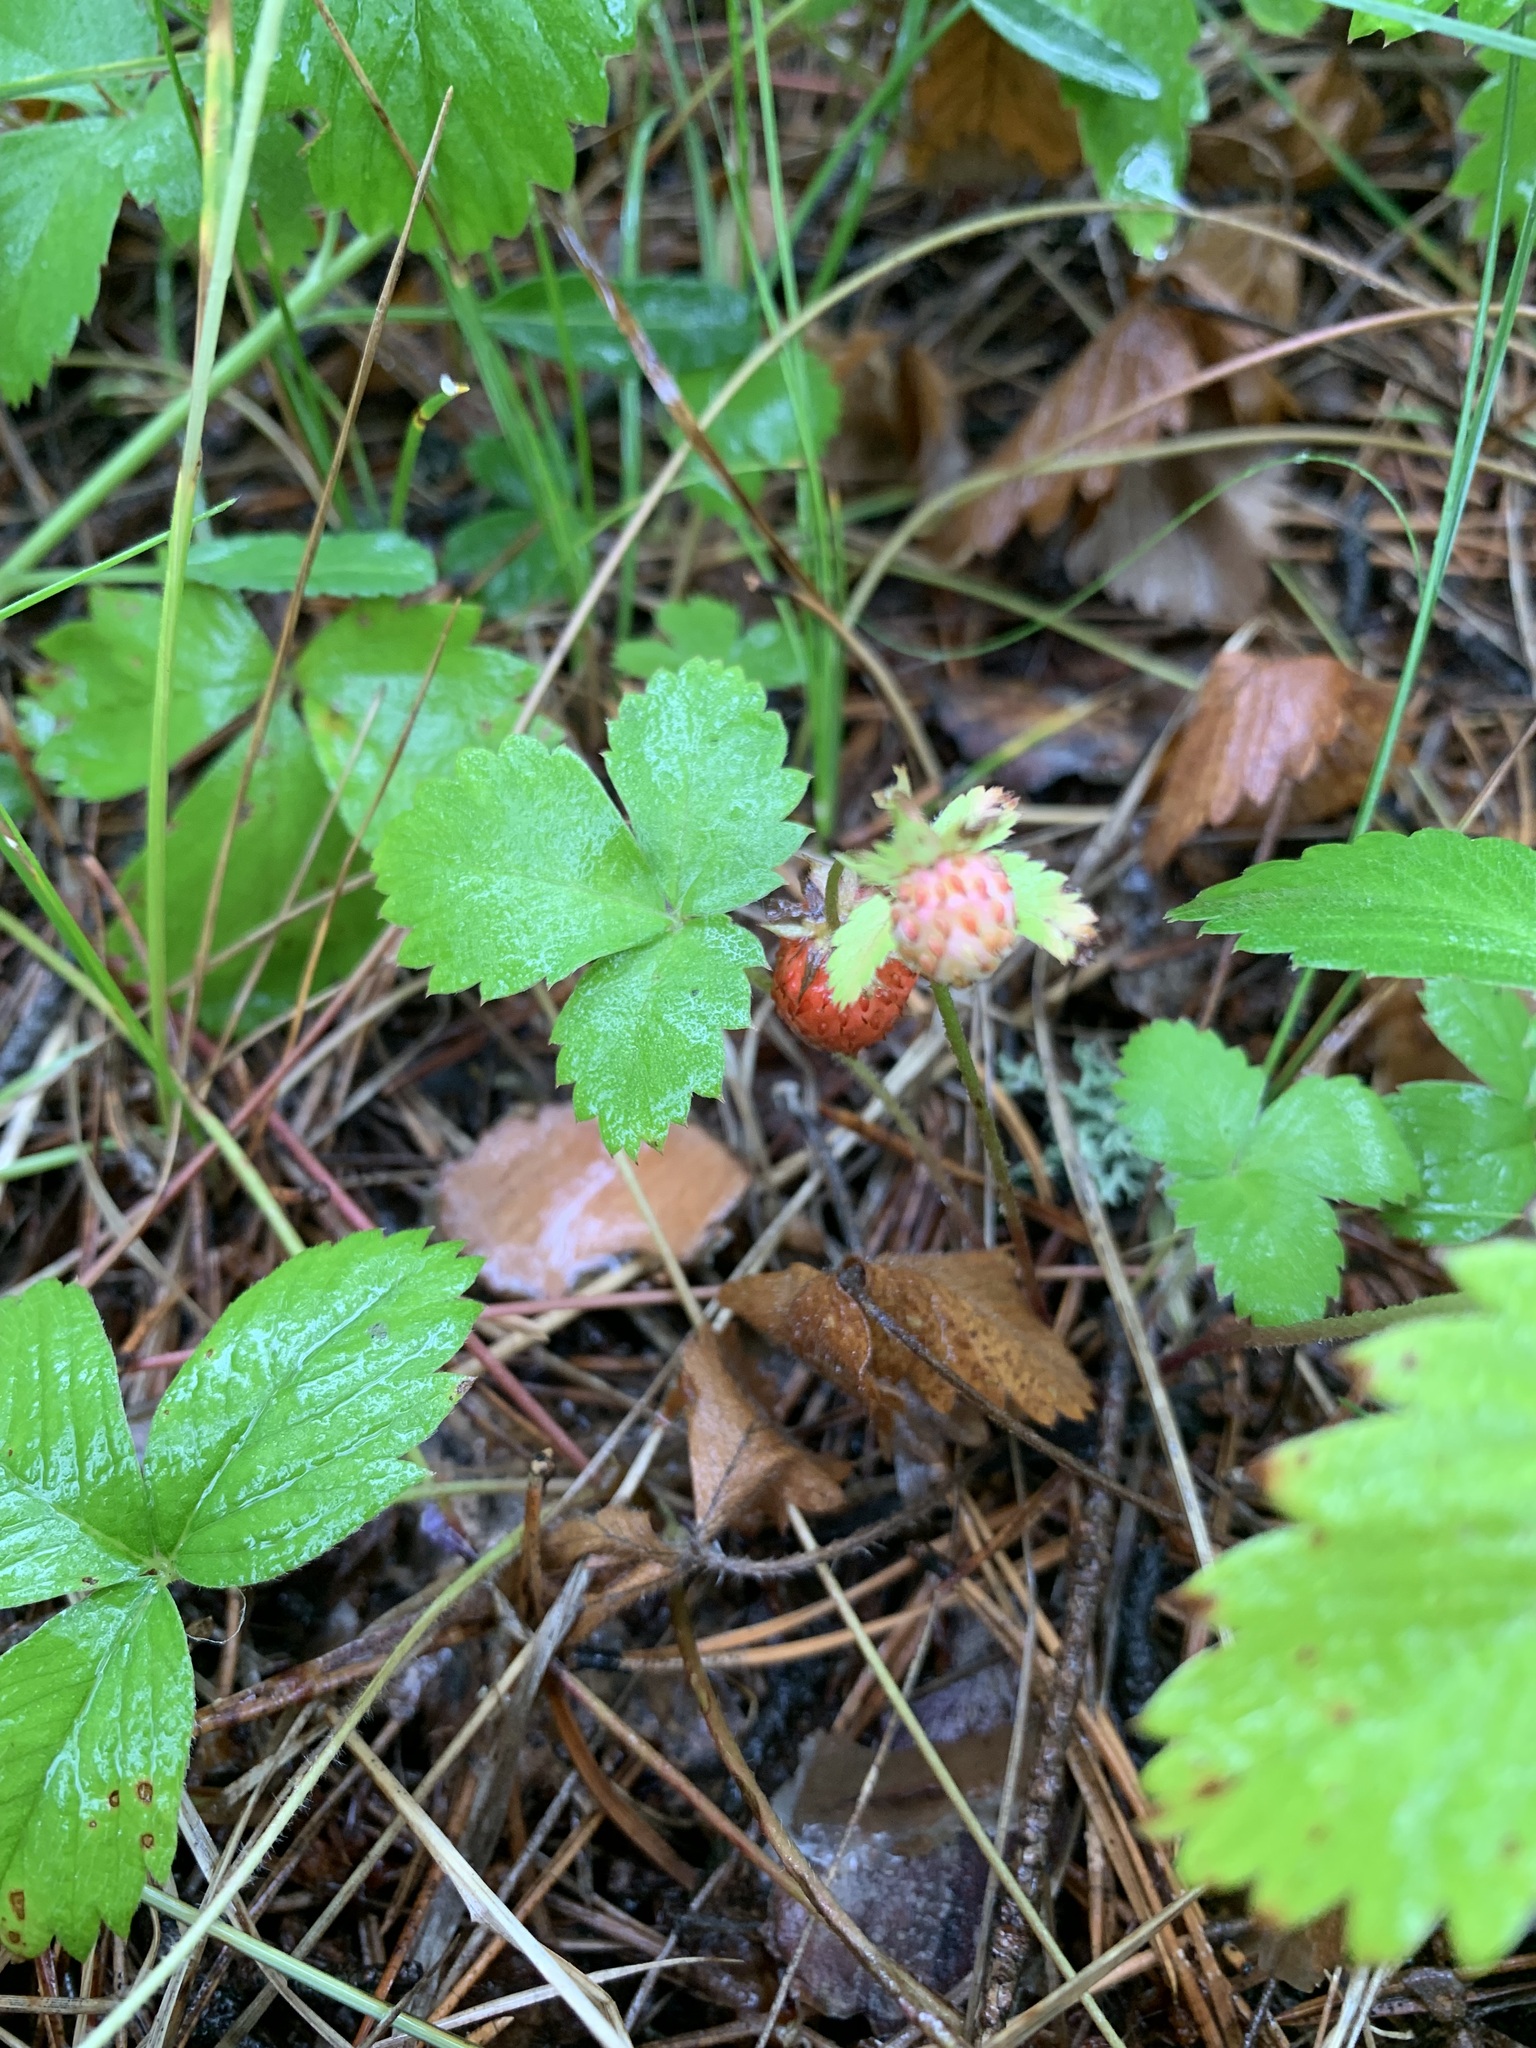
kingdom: Plantae
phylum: Tracheophyta
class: Magnoliopsida
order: Rosales
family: Rosaceae
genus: Fragaria
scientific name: Fragaria vesca
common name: Wild strawberry
